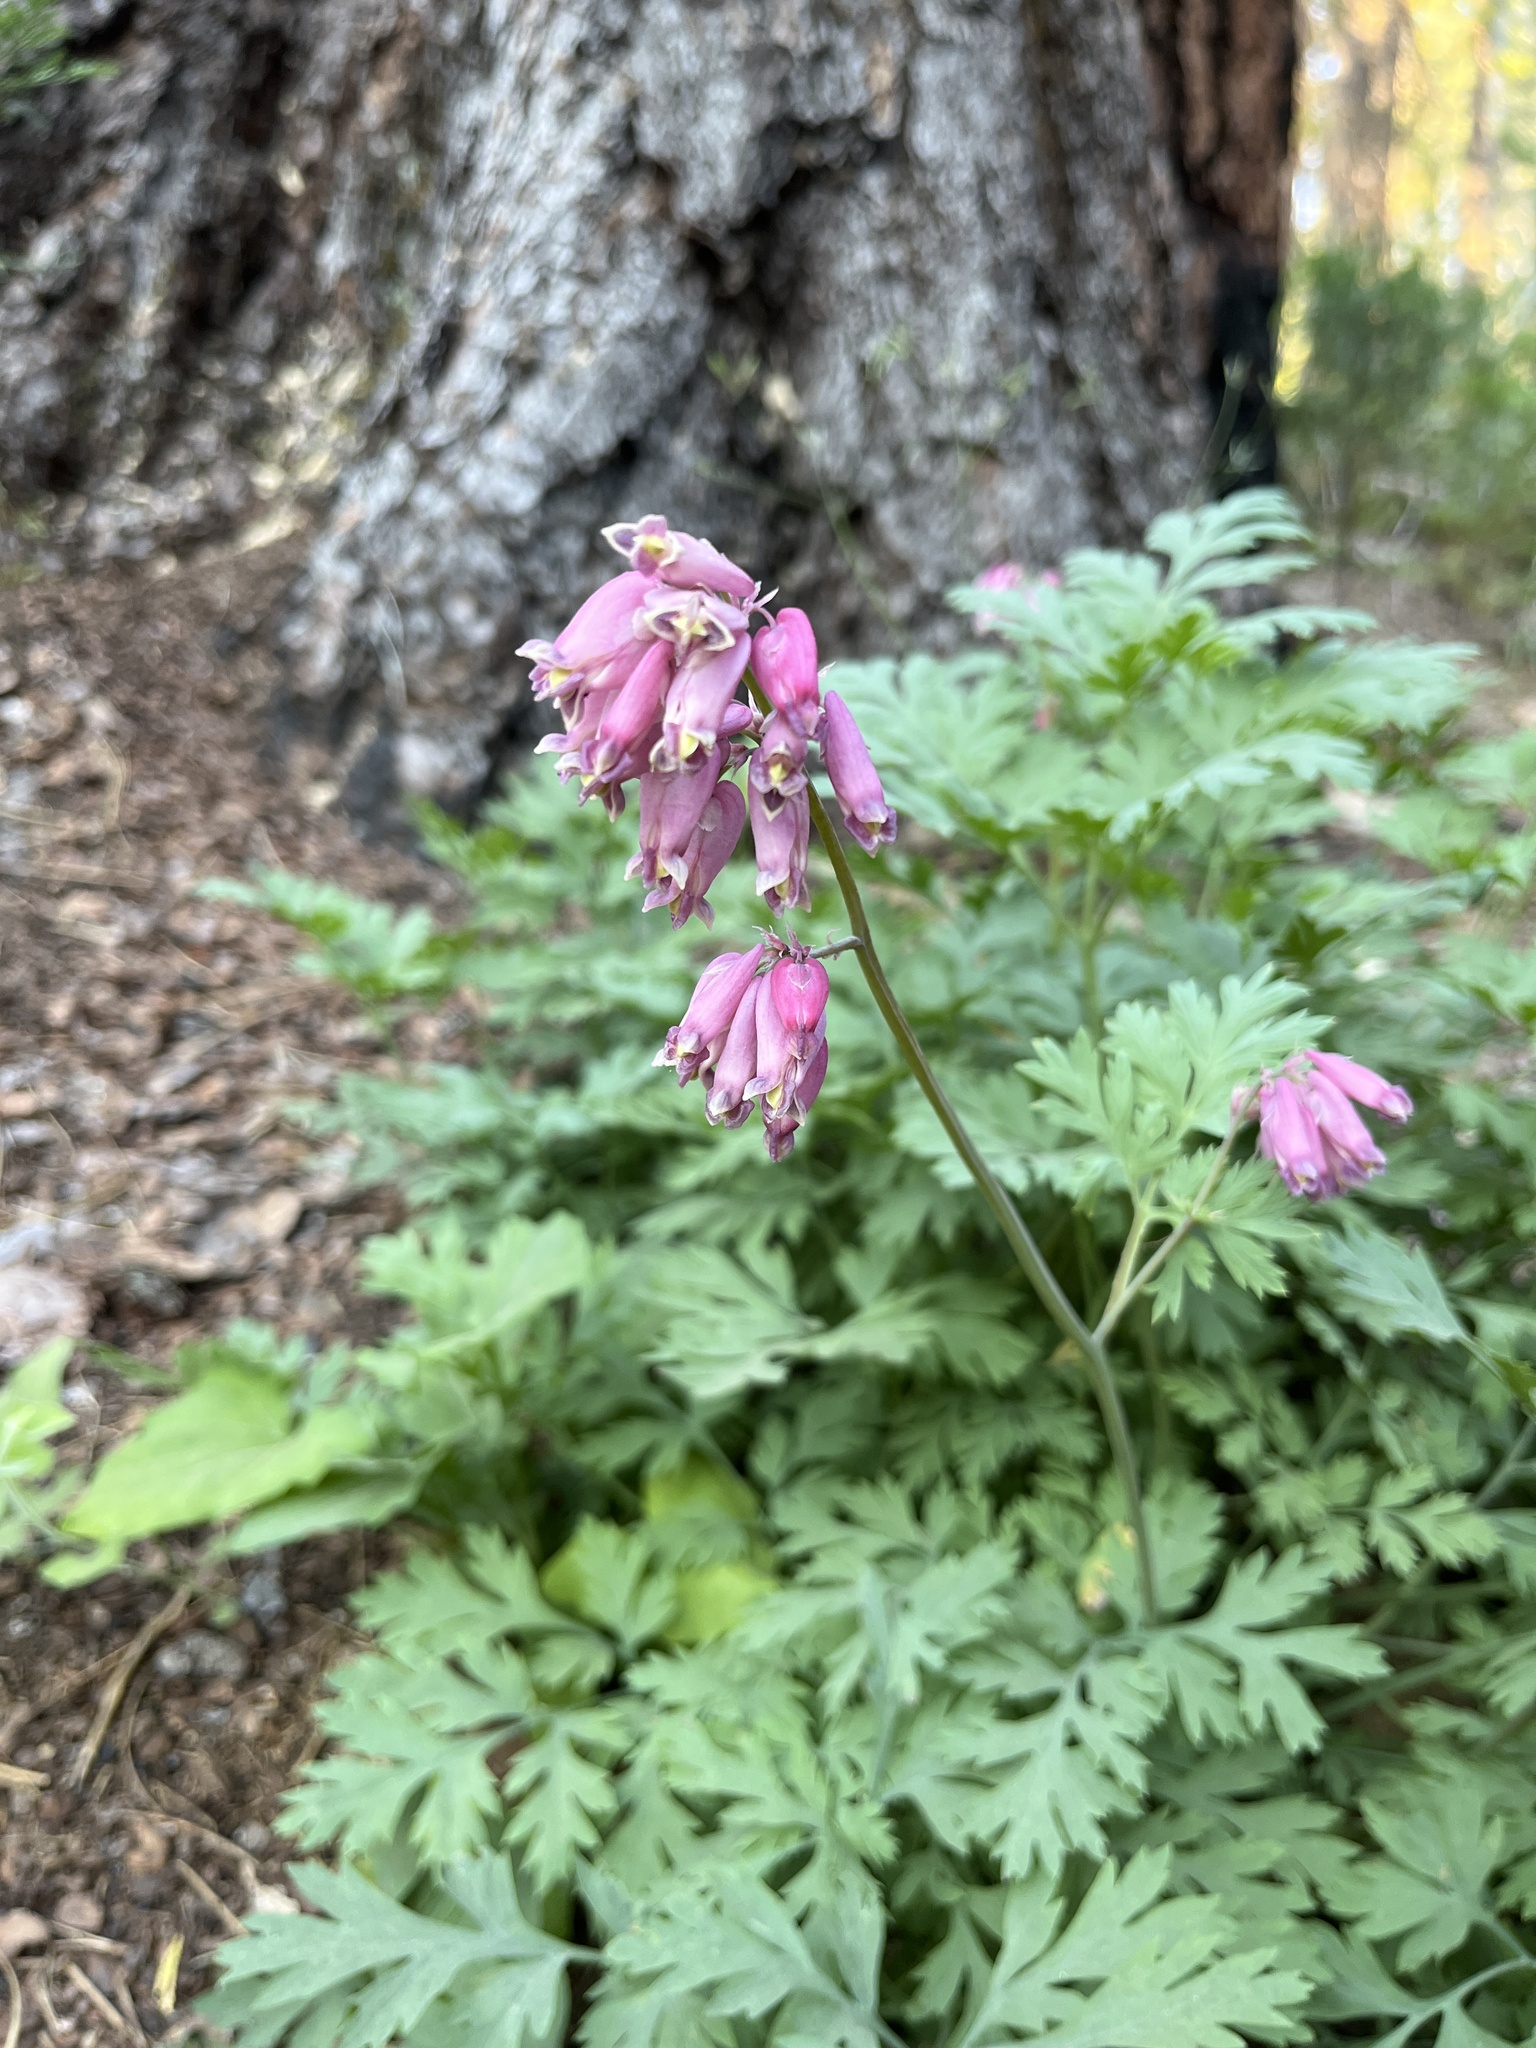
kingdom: Plantae
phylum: Tracheophyta
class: Magnoliopsida
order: Ranunculales
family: Papaveraceae
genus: Dicentra
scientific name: Dicentra formosa
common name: Bleeding-heart
